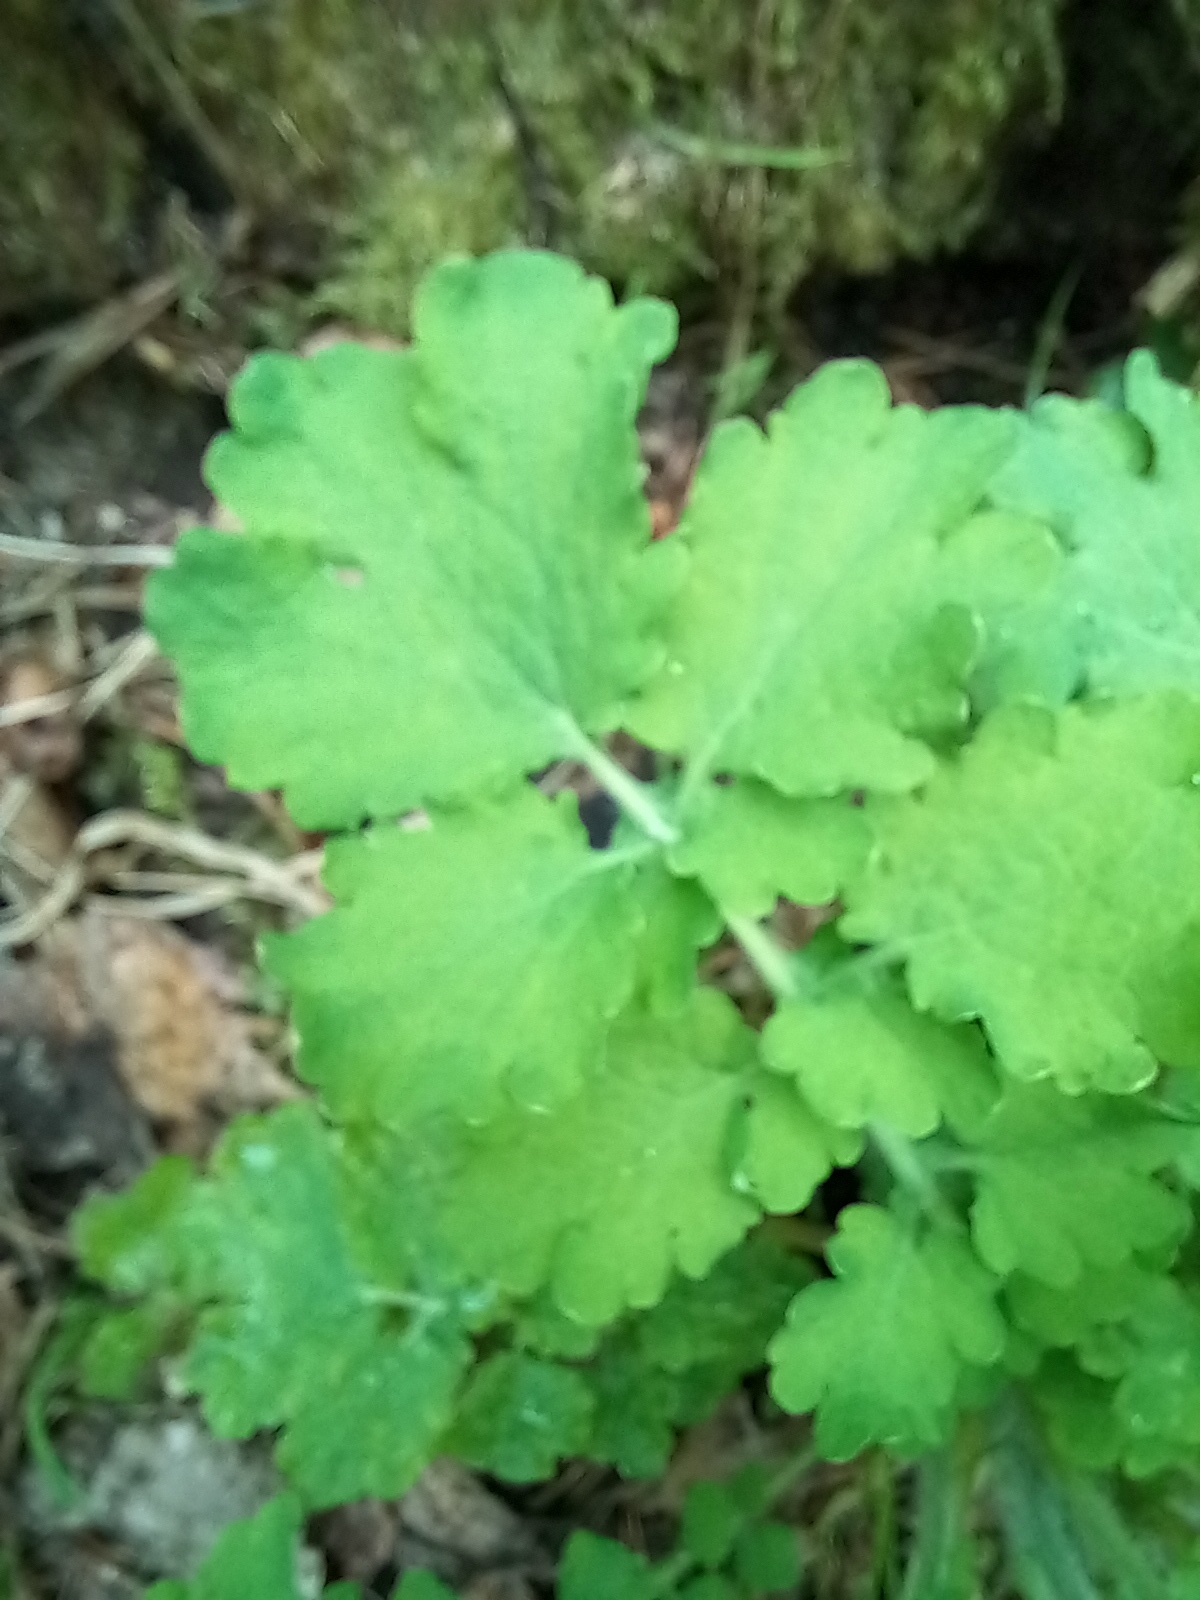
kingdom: Plantae
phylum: Tracheophyta
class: Magnoliopsida
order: Ranunculales
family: Papaveraceae
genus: Chelidonium
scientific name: Chelidonium majus
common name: Greater celandine
